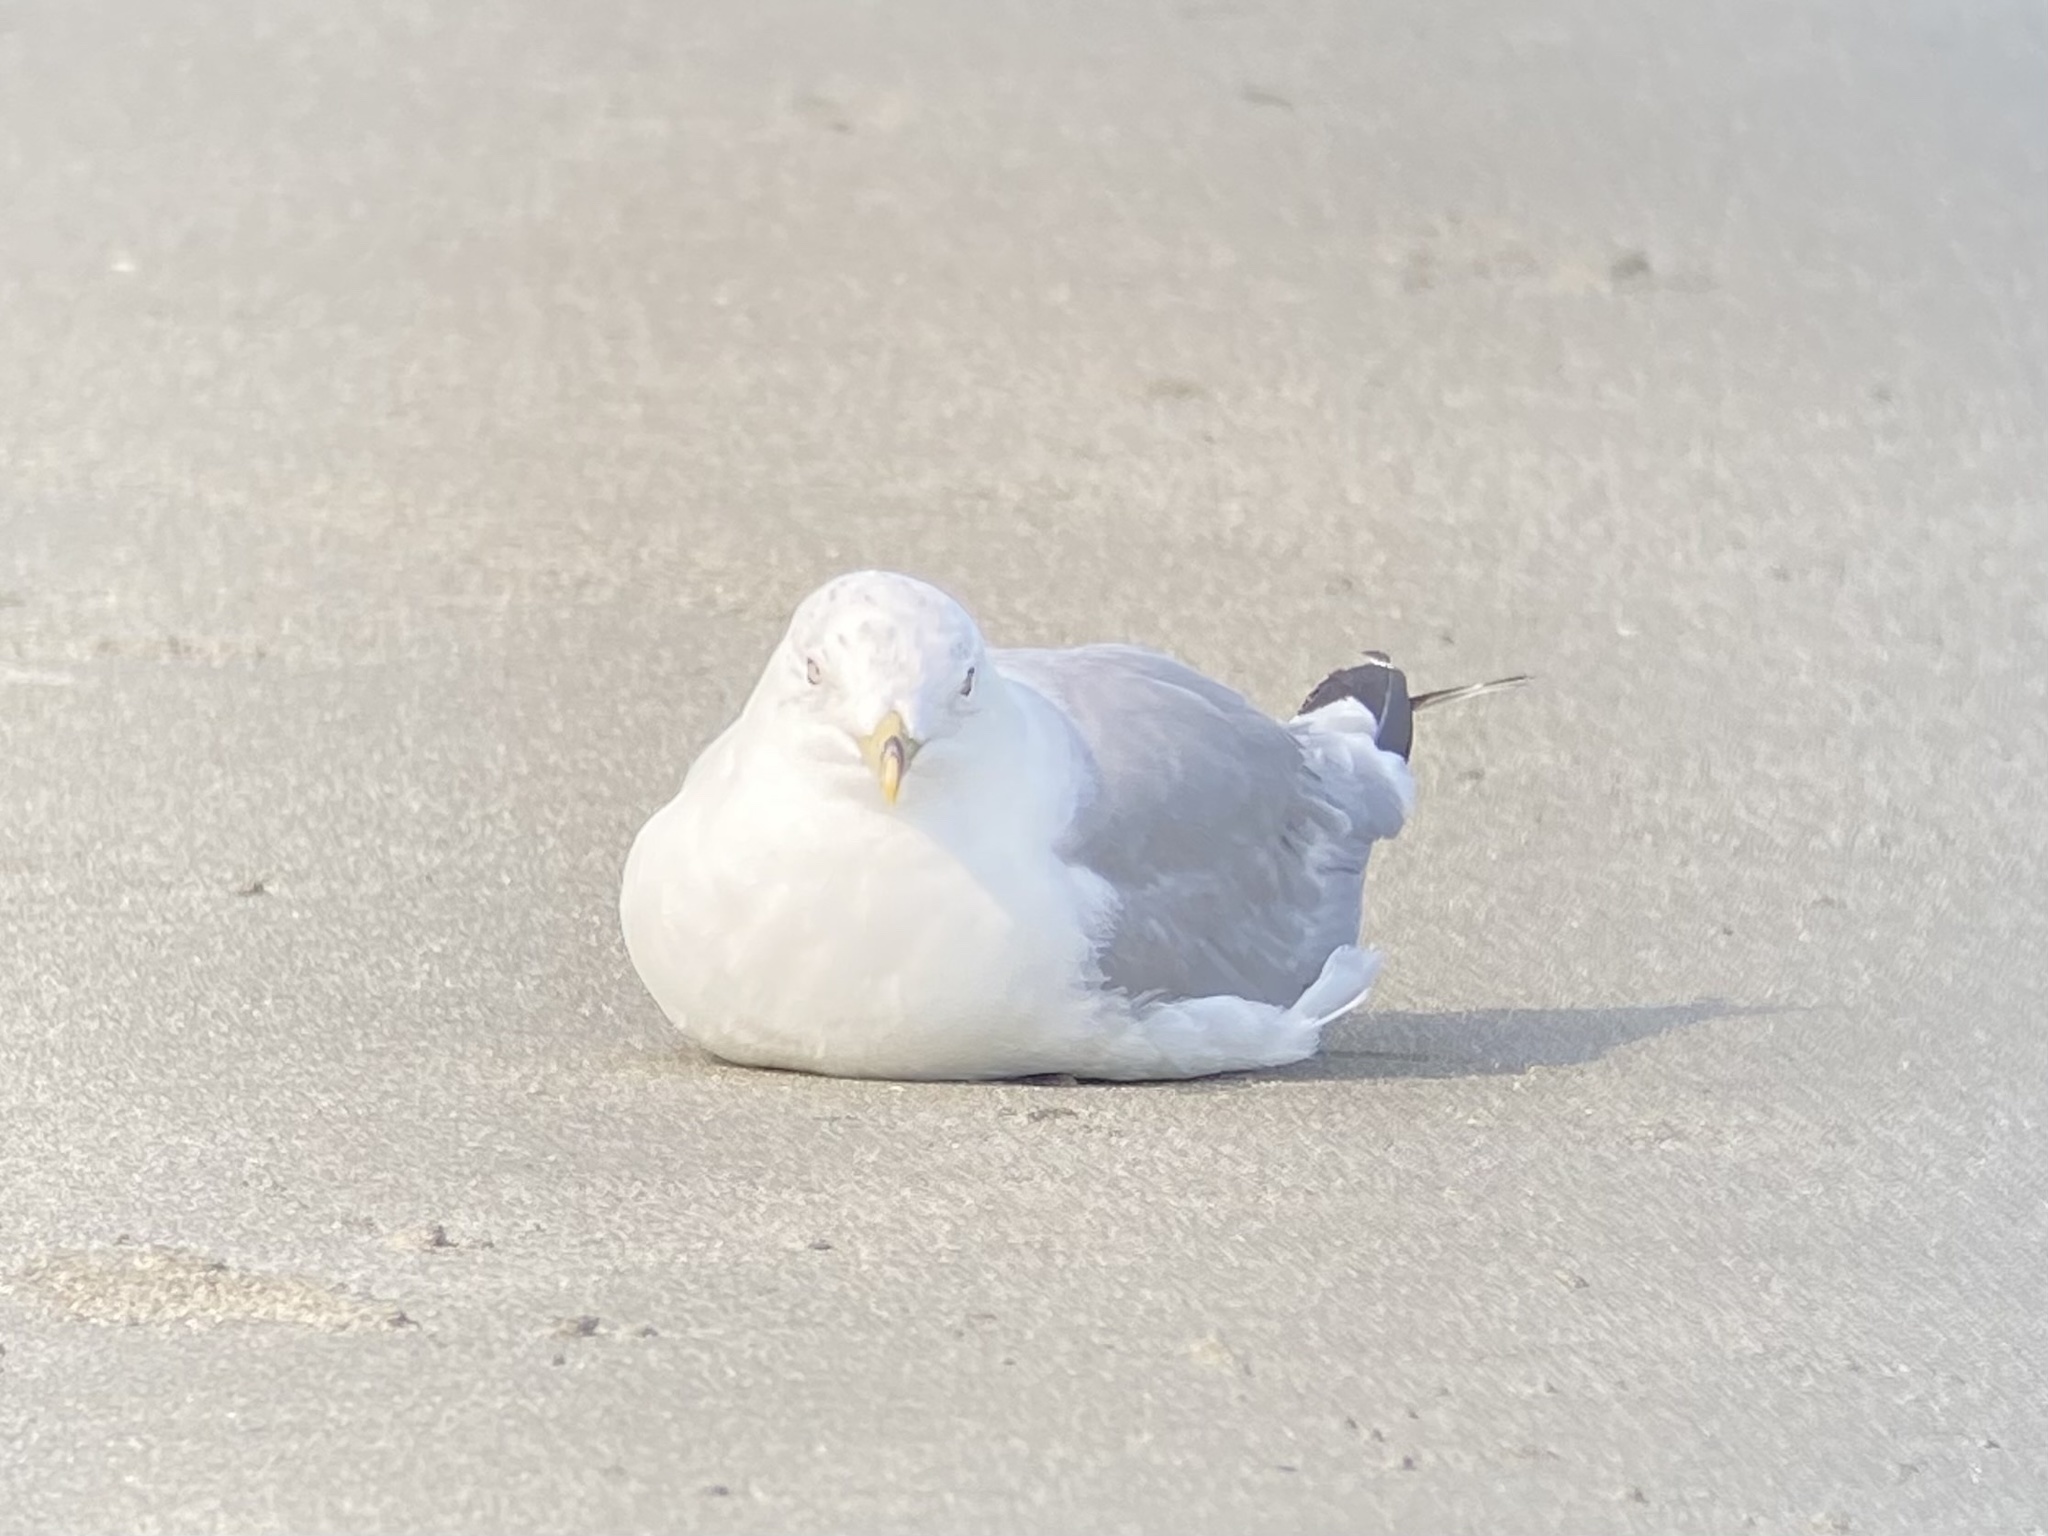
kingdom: Animalia
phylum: Chordata
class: Aves
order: Charadriiformes
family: Laridae
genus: Larus
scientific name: Larus delawarensis
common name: Ring-billed gull
